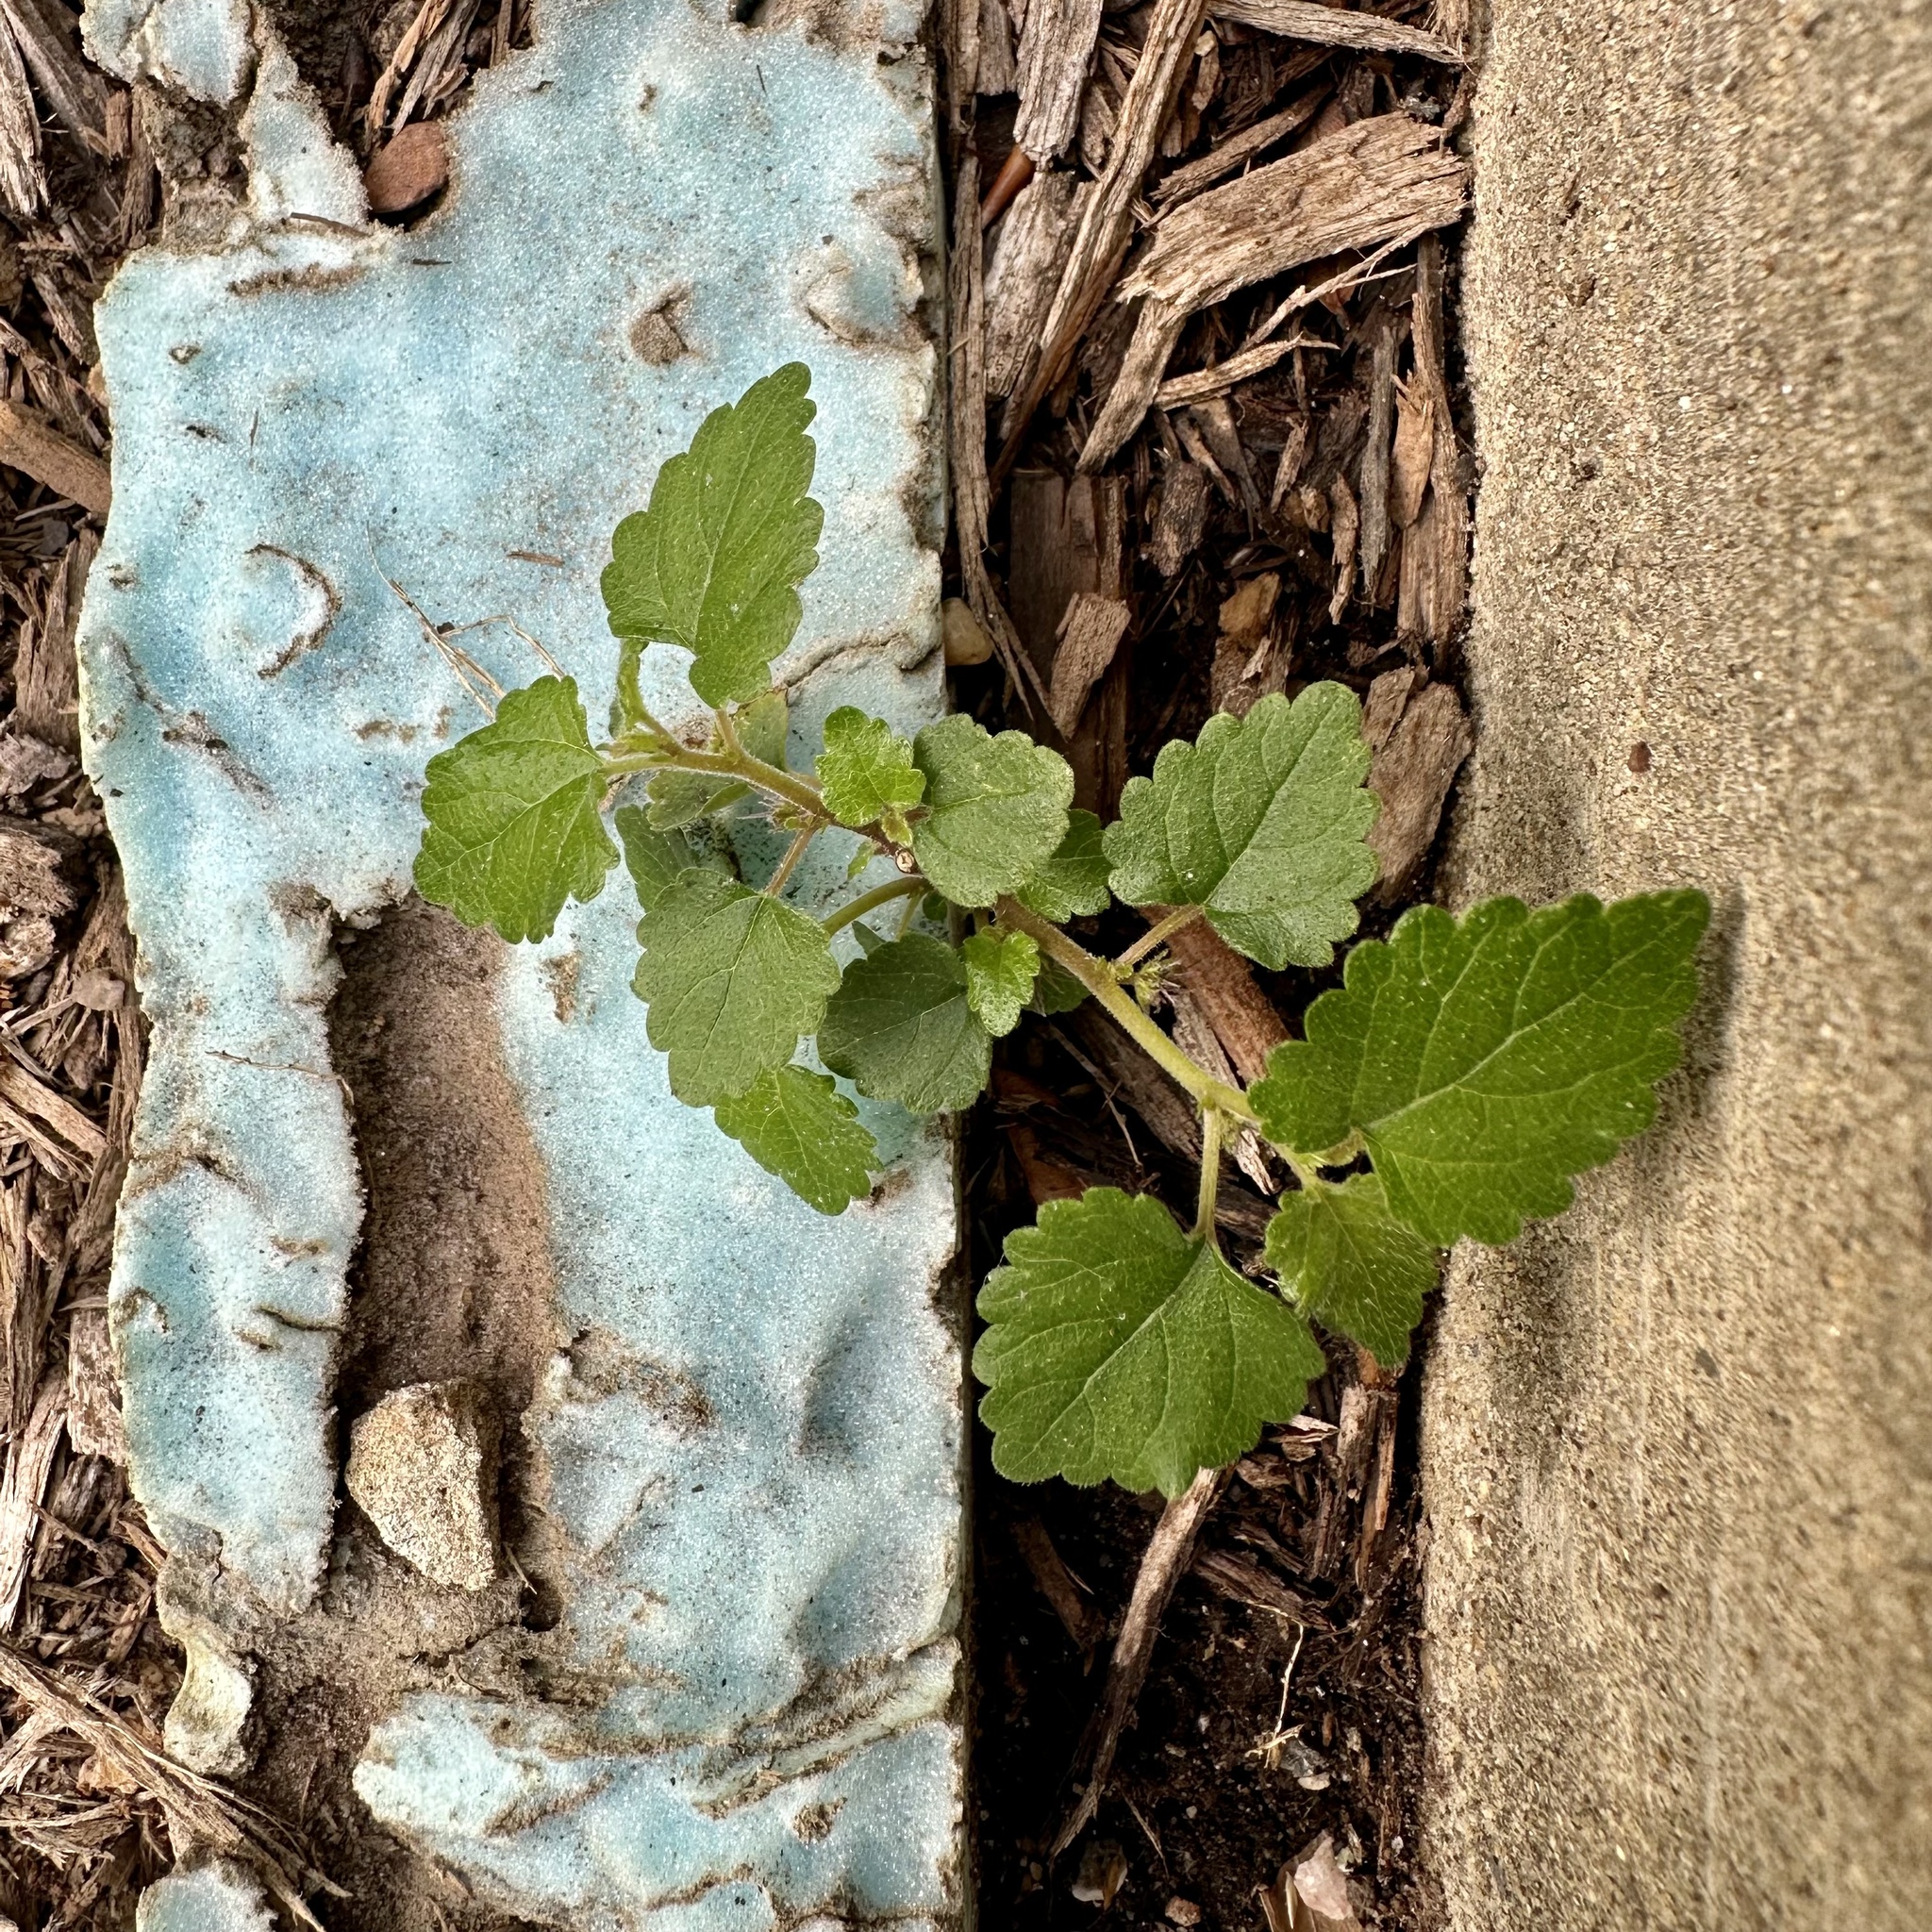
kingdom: Plantae
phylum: Tracheophyta
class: Magnoliopsida
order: Rosales
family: Moraceae
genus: Fatoua
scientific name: Fatoua villosa
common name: Hairy crabweed
